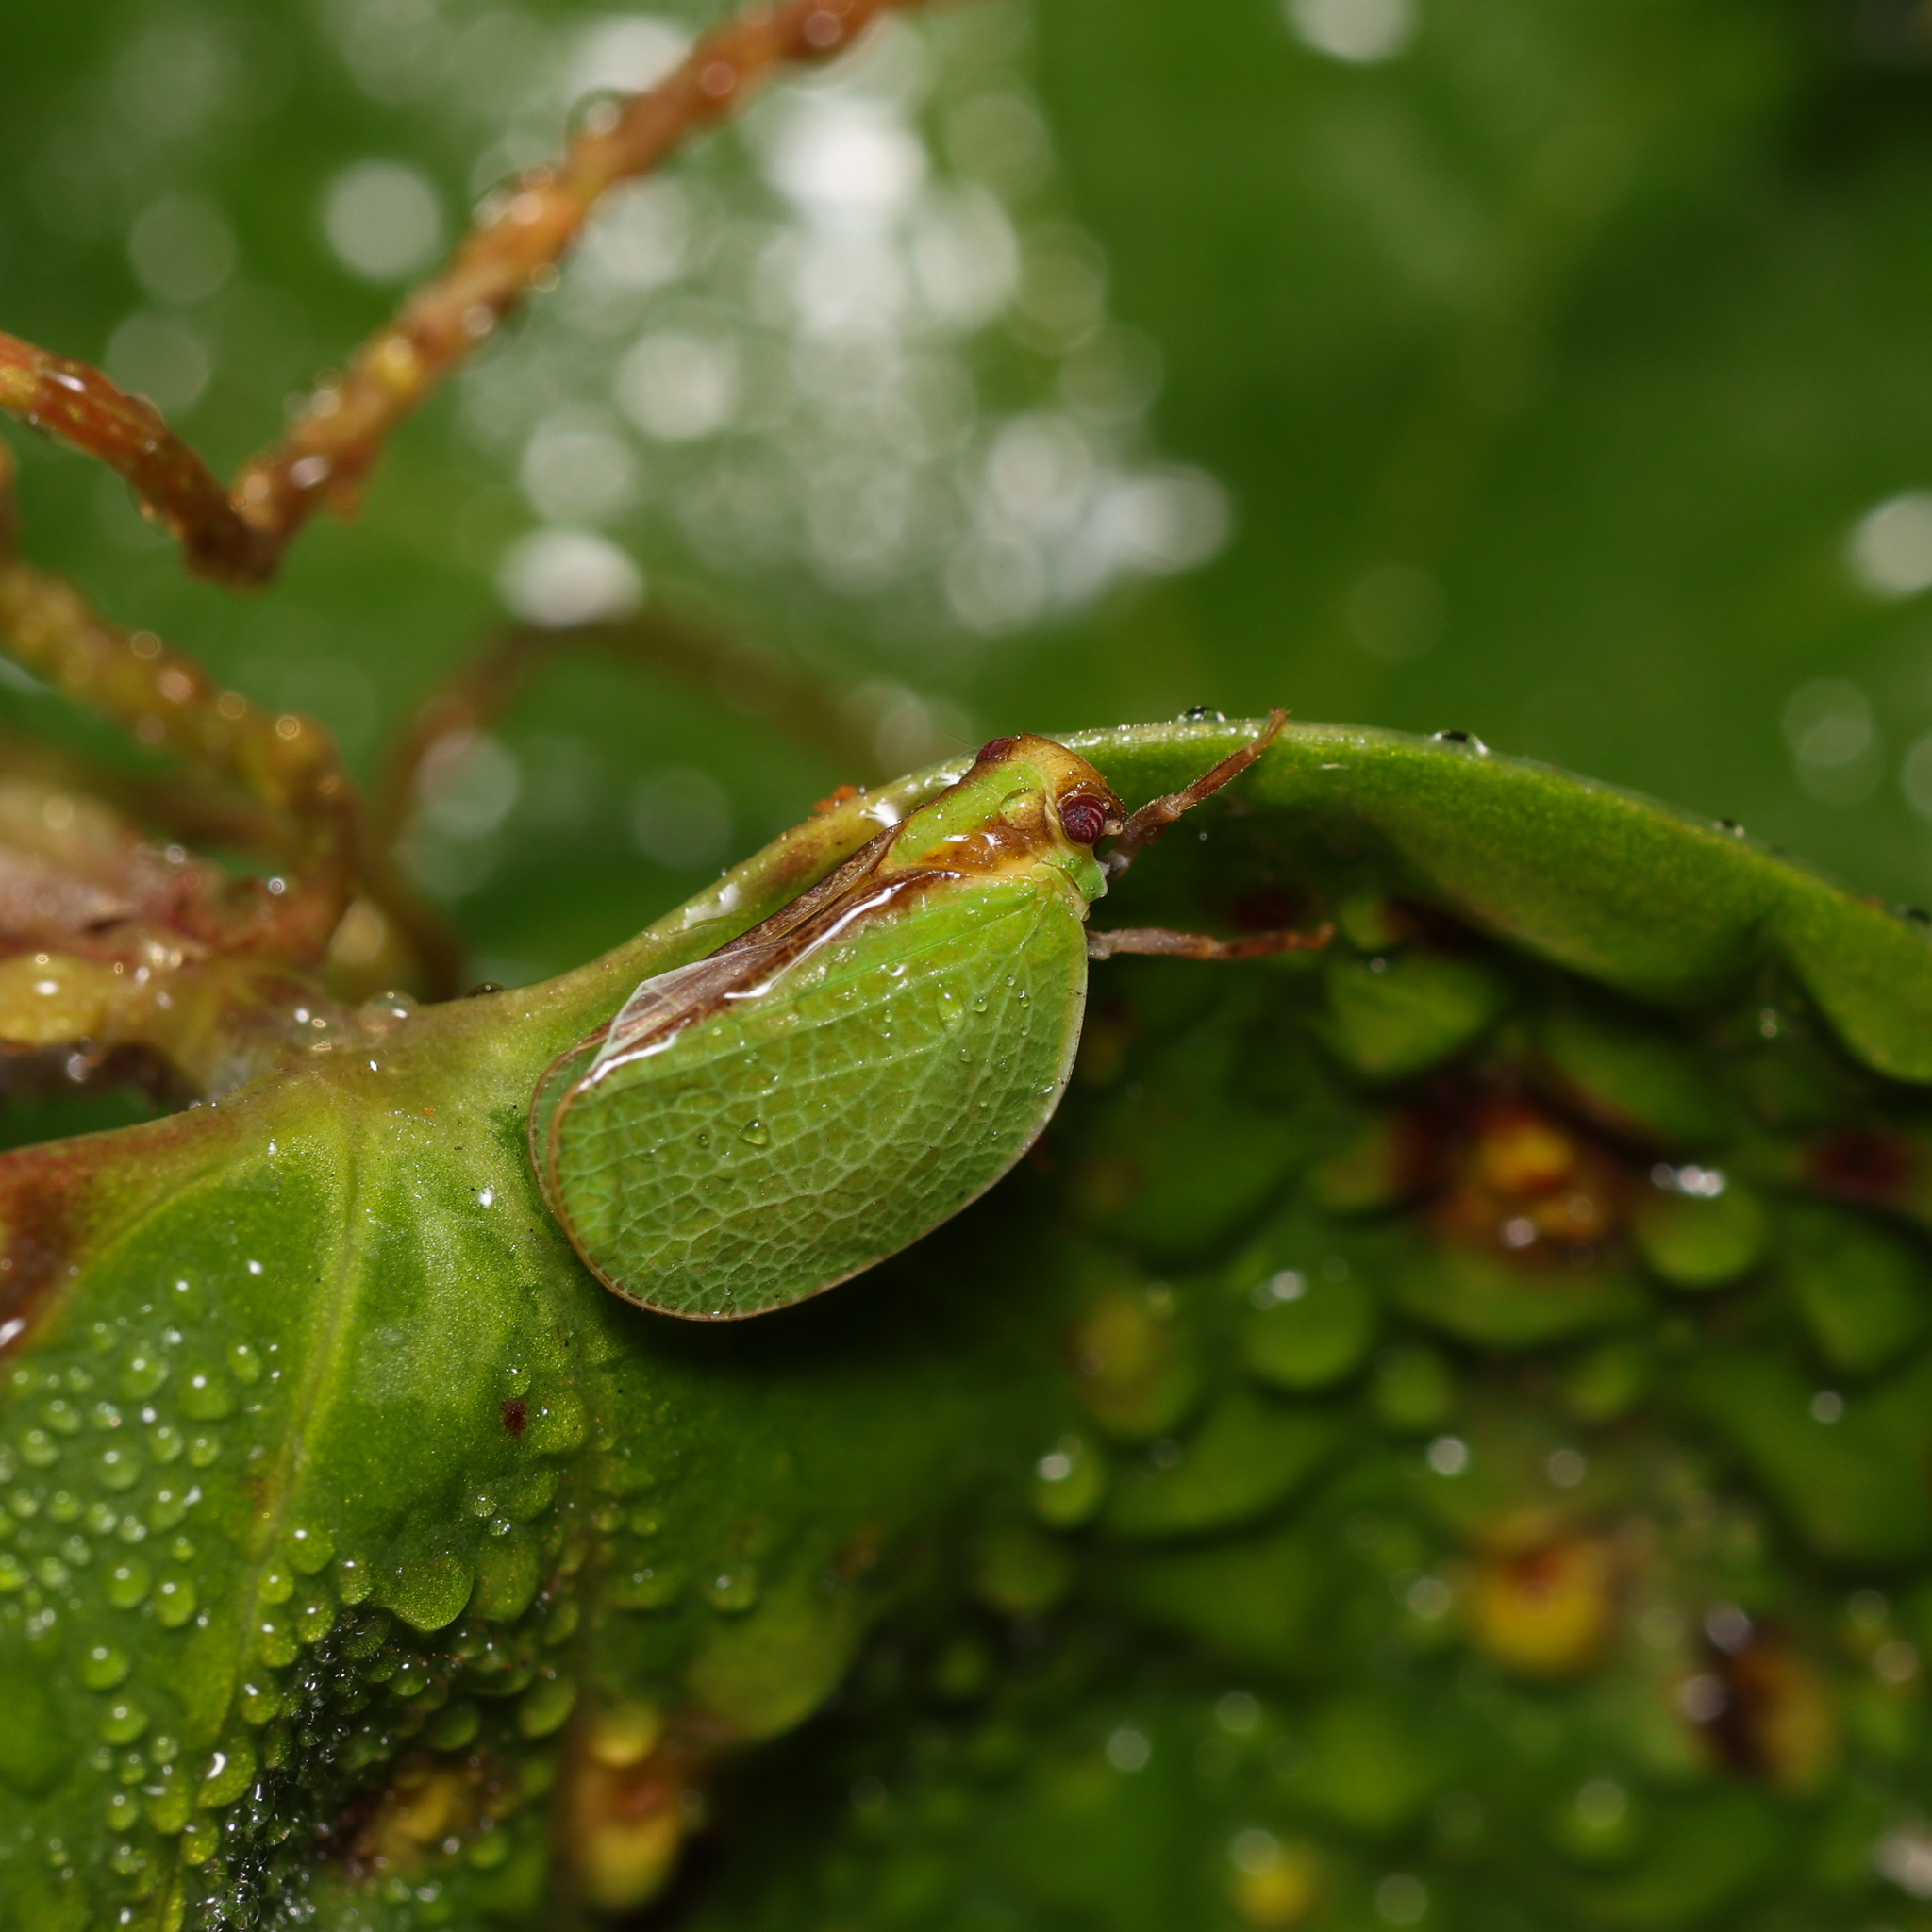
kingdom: Animalia
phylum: Arthropoda
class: Insecta
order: Hemiptera
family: Acanaloniidae
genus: Acanalonia
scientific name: Acanalonia bivittata
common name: Two-striped planthopper
